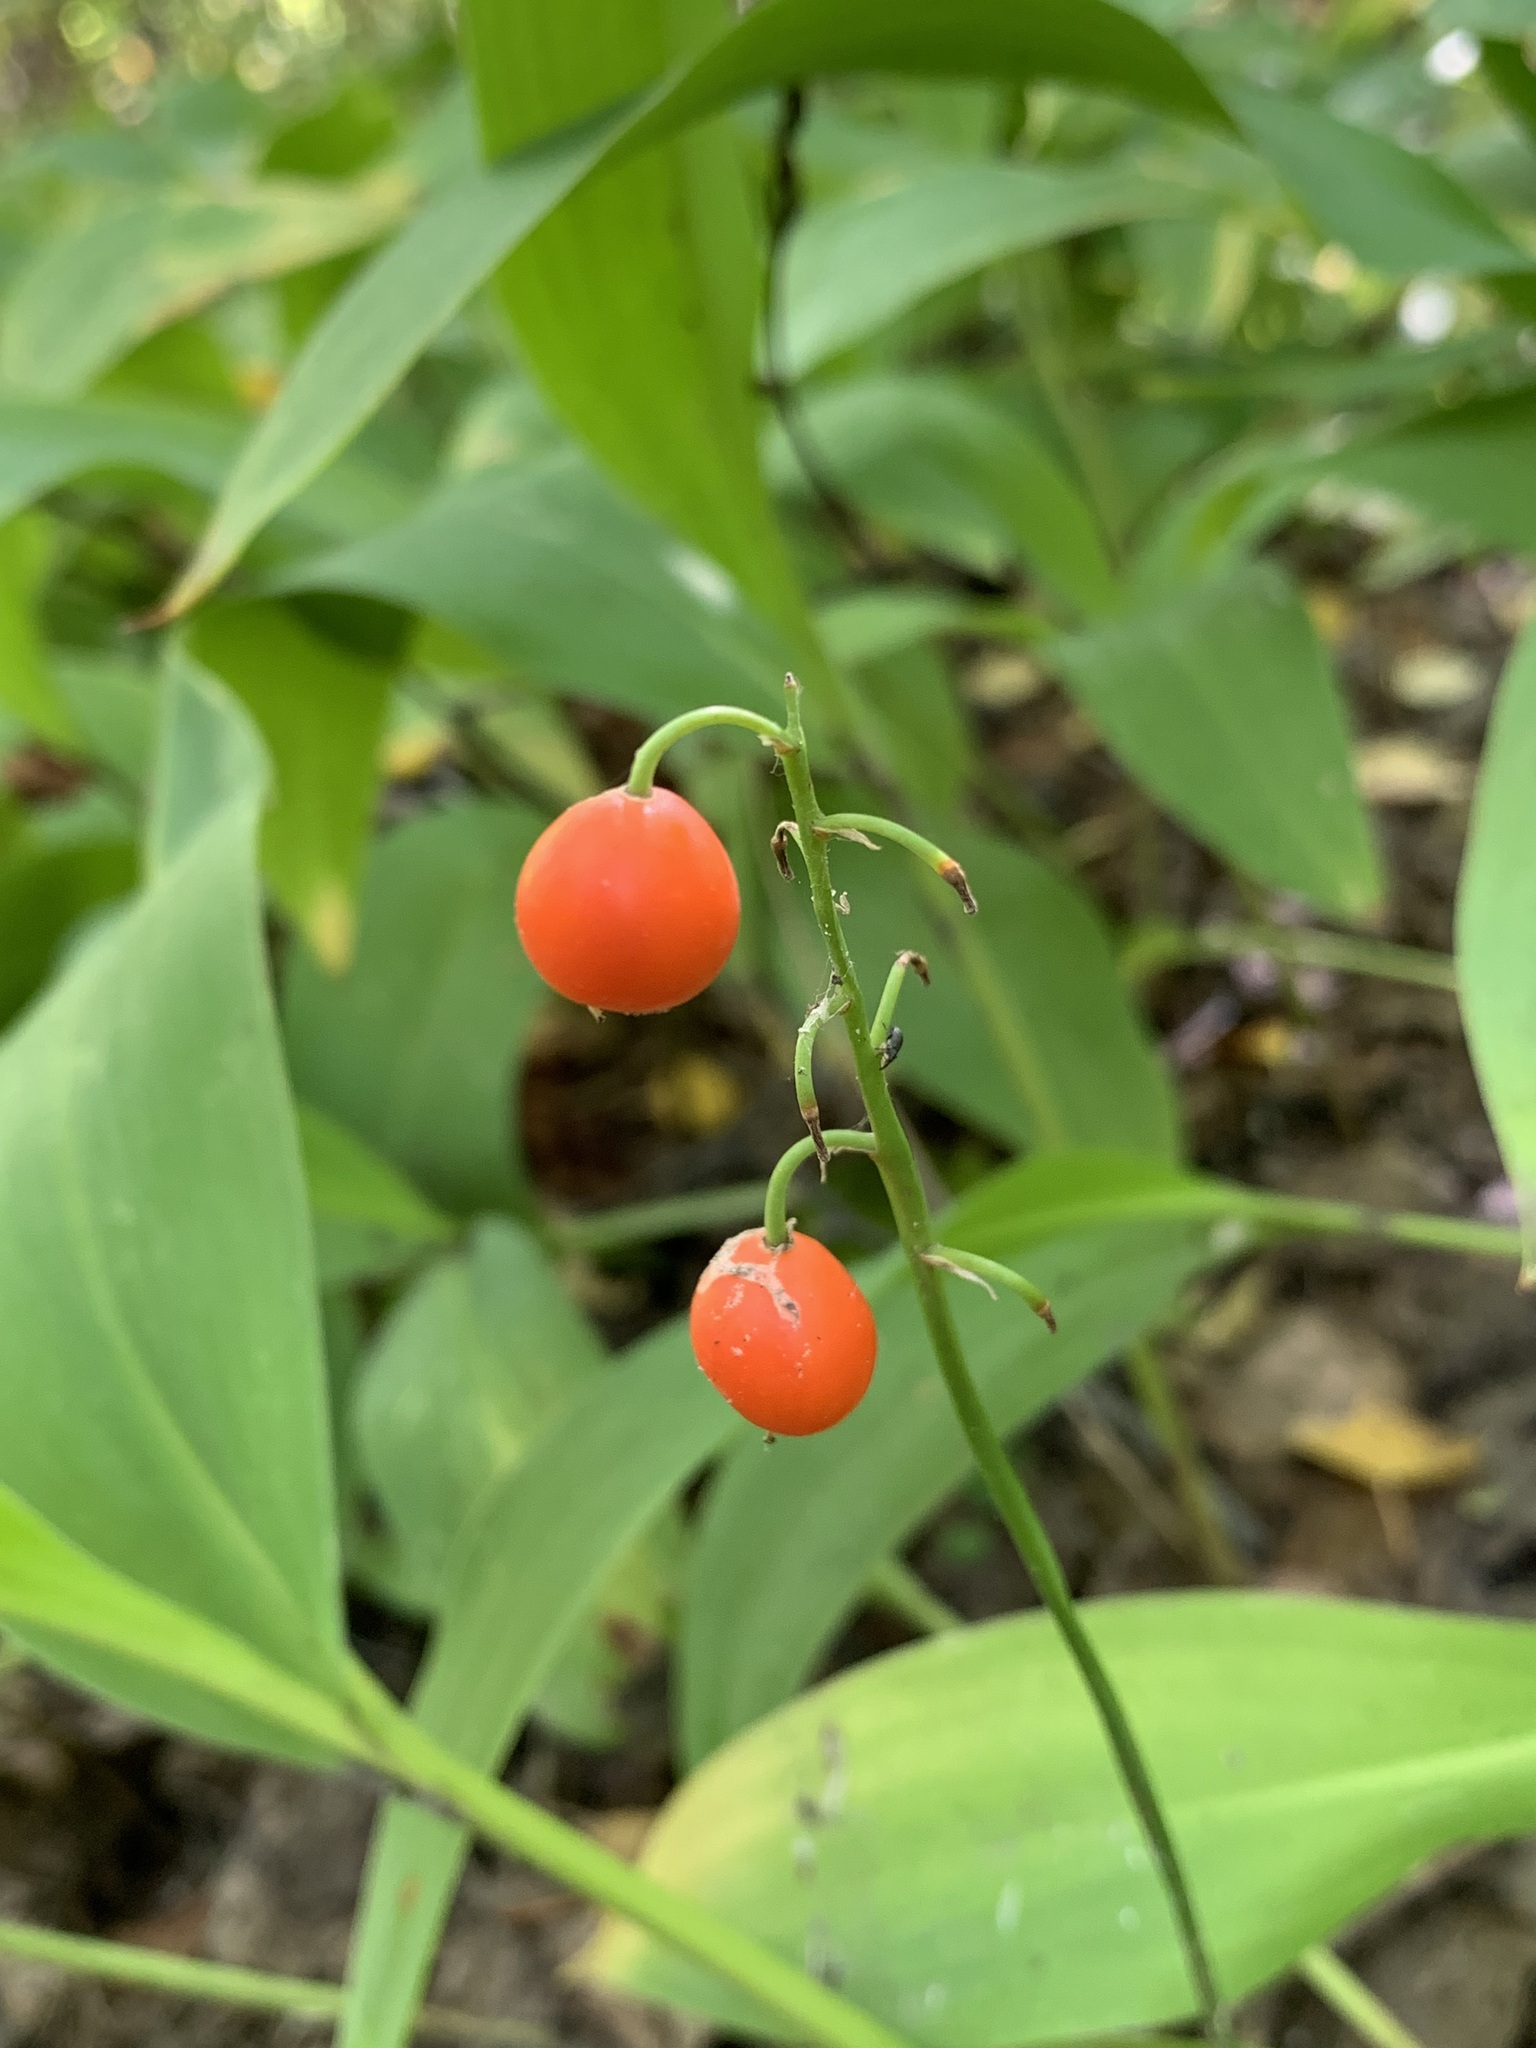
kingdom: Plantae
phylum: Tracheophyta
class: Liliopsida
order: Asparagales
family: Asparagaceae
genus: Convallaria
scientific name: Convallaria majalis
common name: Lily-of-the-valley
